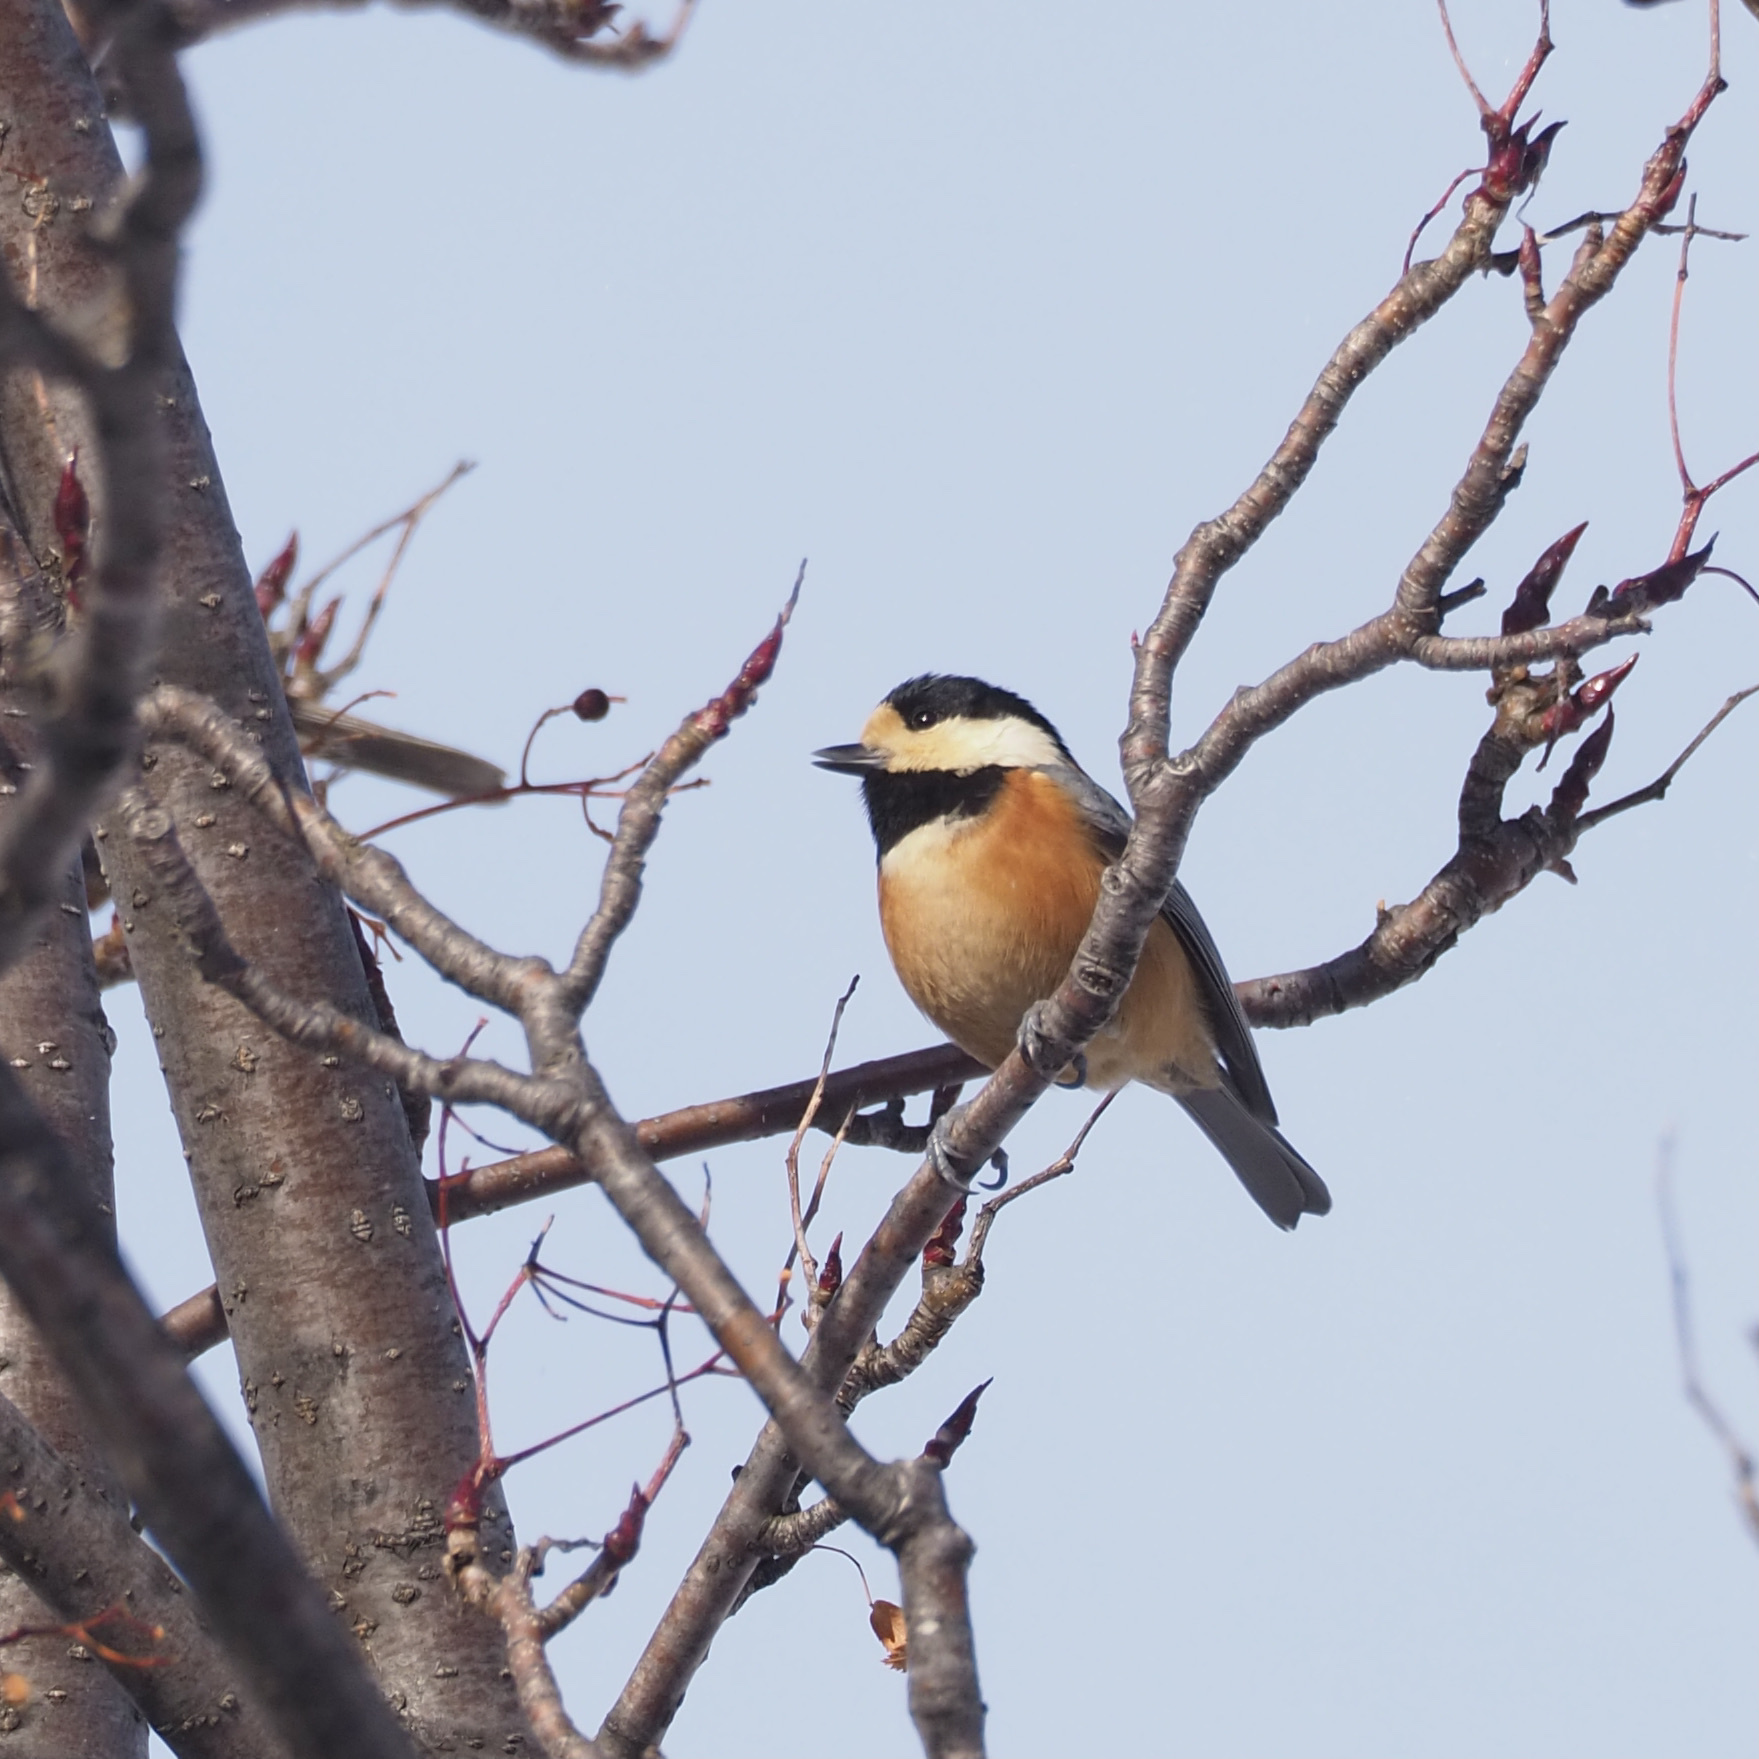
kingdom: Animalia
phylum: Chordata
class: Aves
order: Passeriformes
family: Paridae
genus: Poecile
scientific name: Poecile varius
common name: Varied tit
